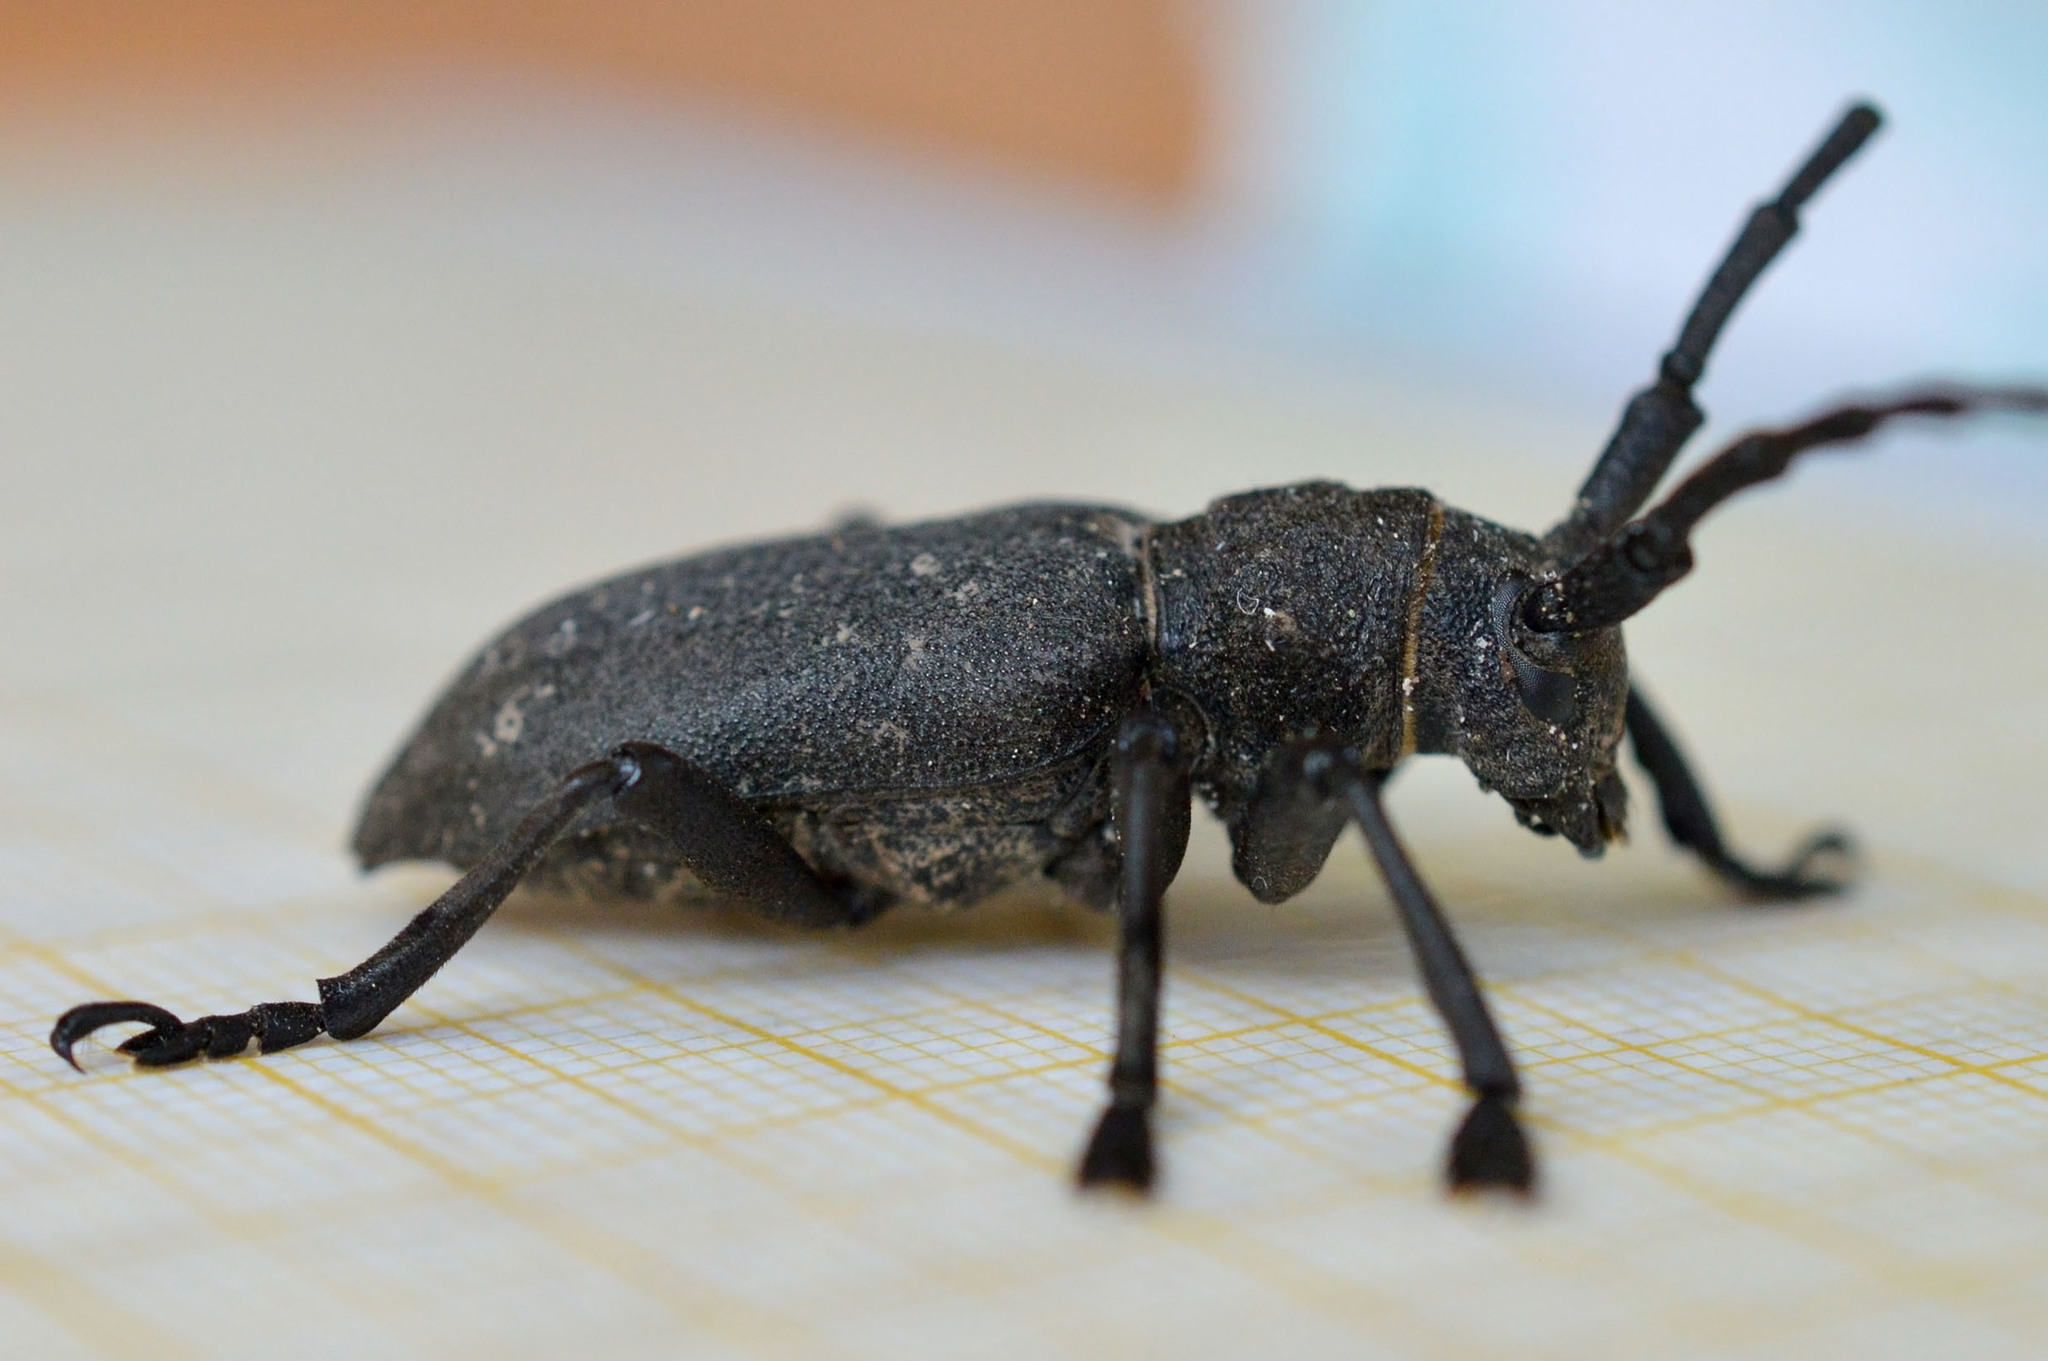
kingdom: Animalia
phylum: Arthropoda
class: Insecta
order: Coleoptera
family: Cerambycidae
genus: Lamia
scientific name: Lamia textor
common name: Weaver beetle
